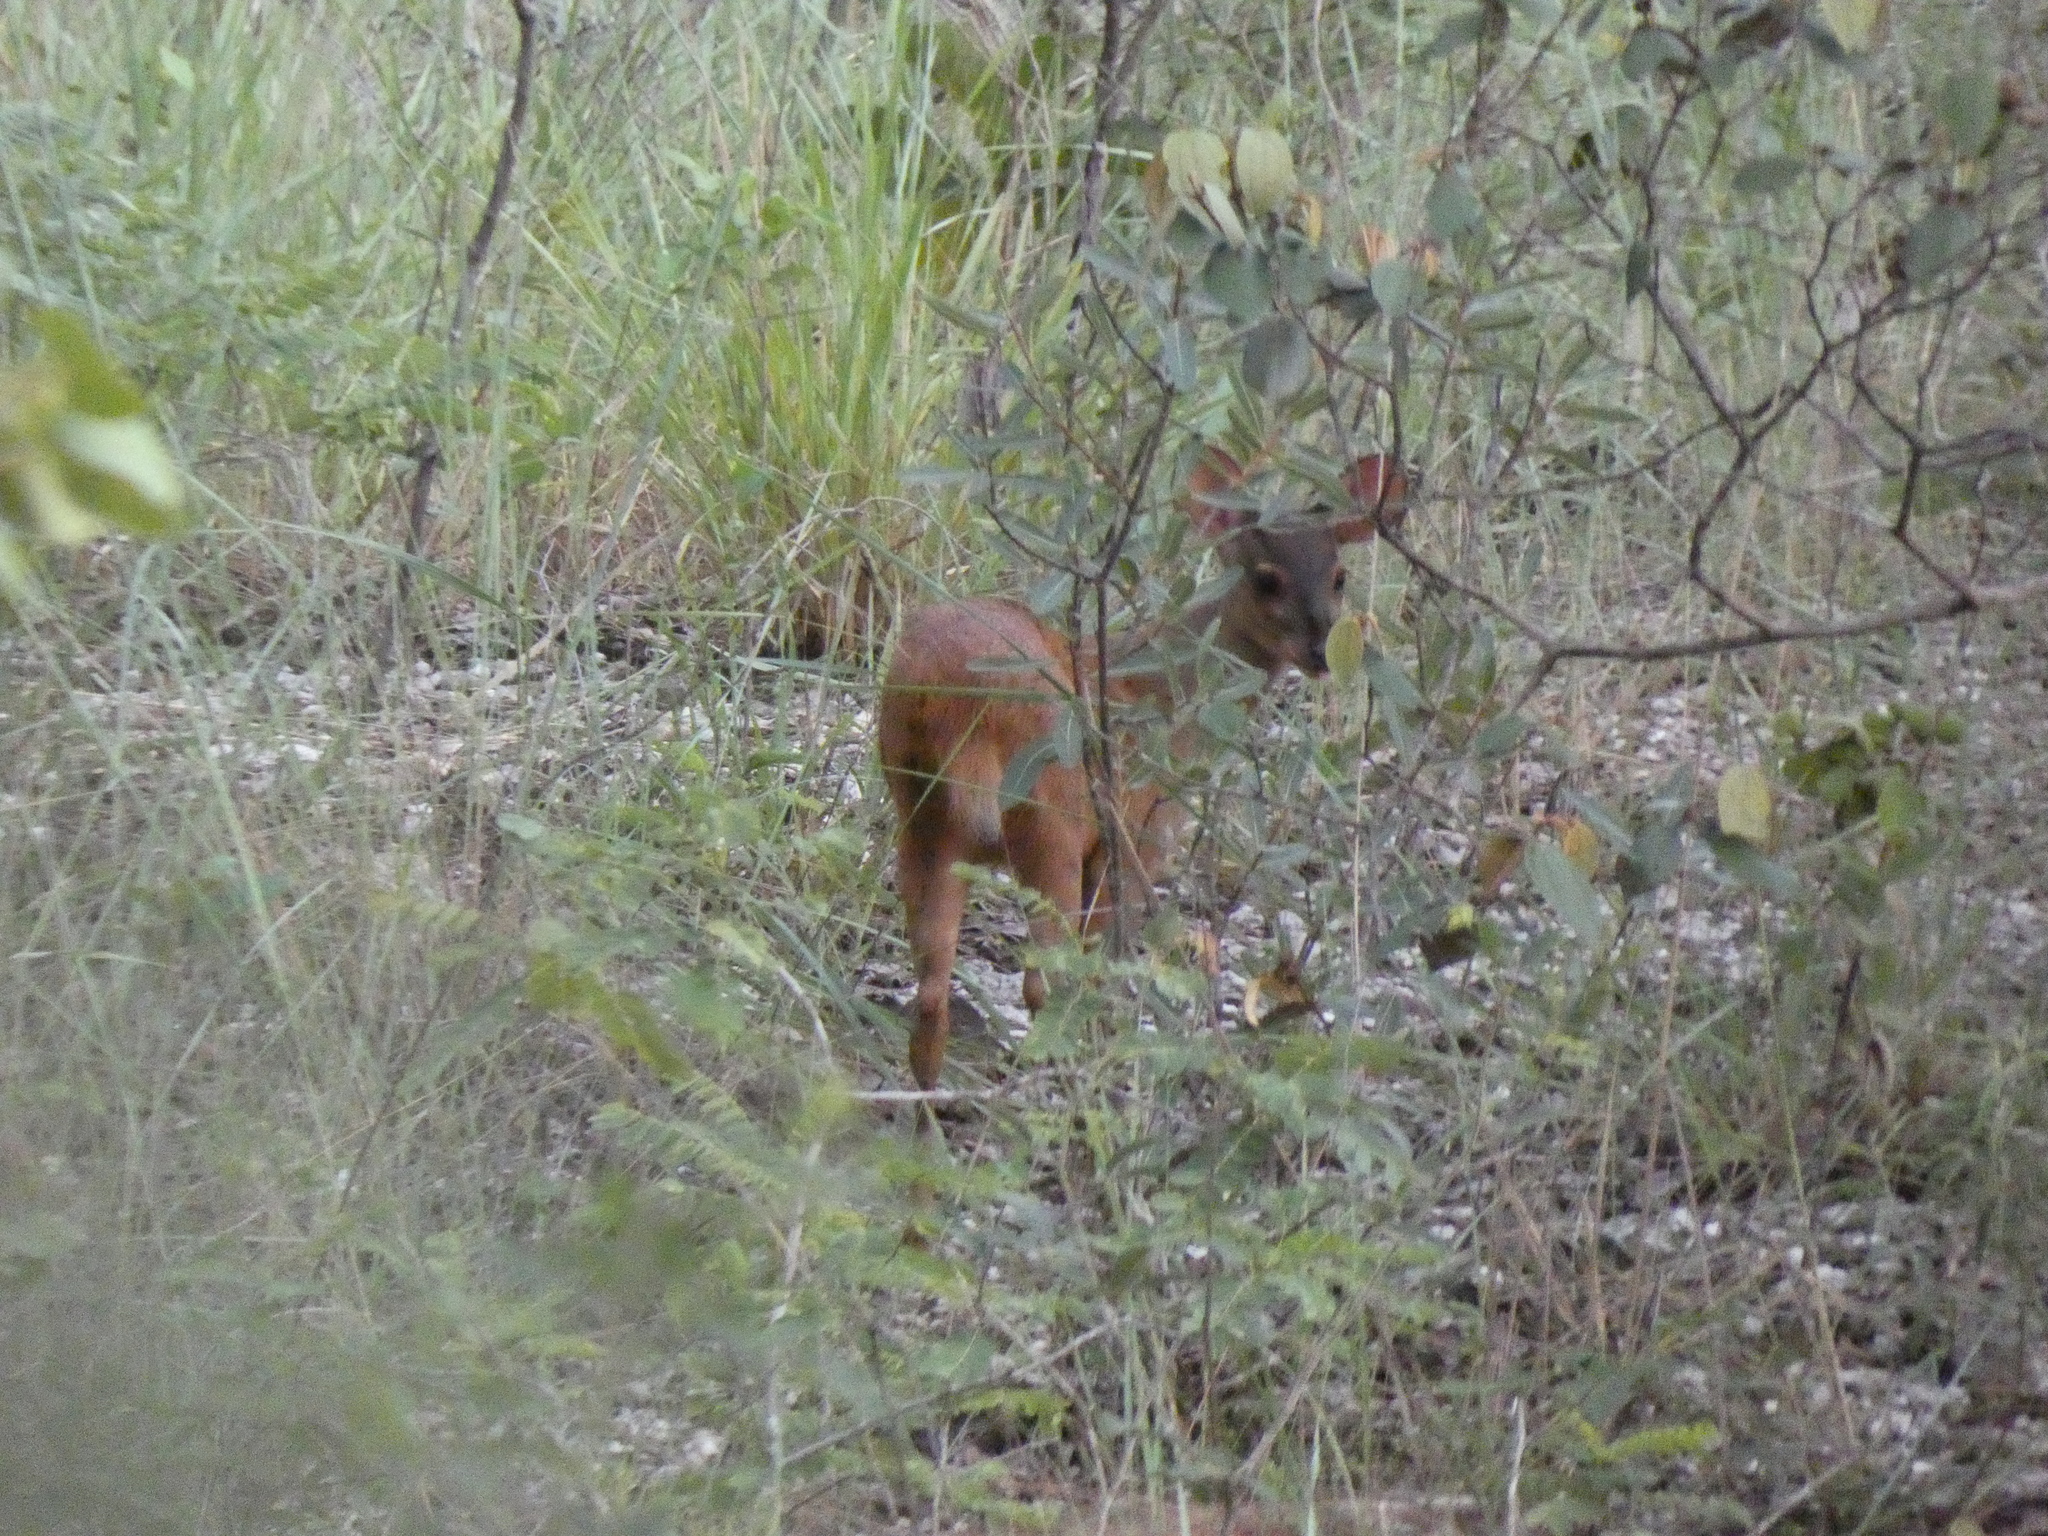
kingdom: Animalia
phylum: Chordata
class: Mammalia
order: Artiodactyla
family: Cervidae
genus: Mazama
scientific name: Mazama gouazoubira
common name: Gray brocket
